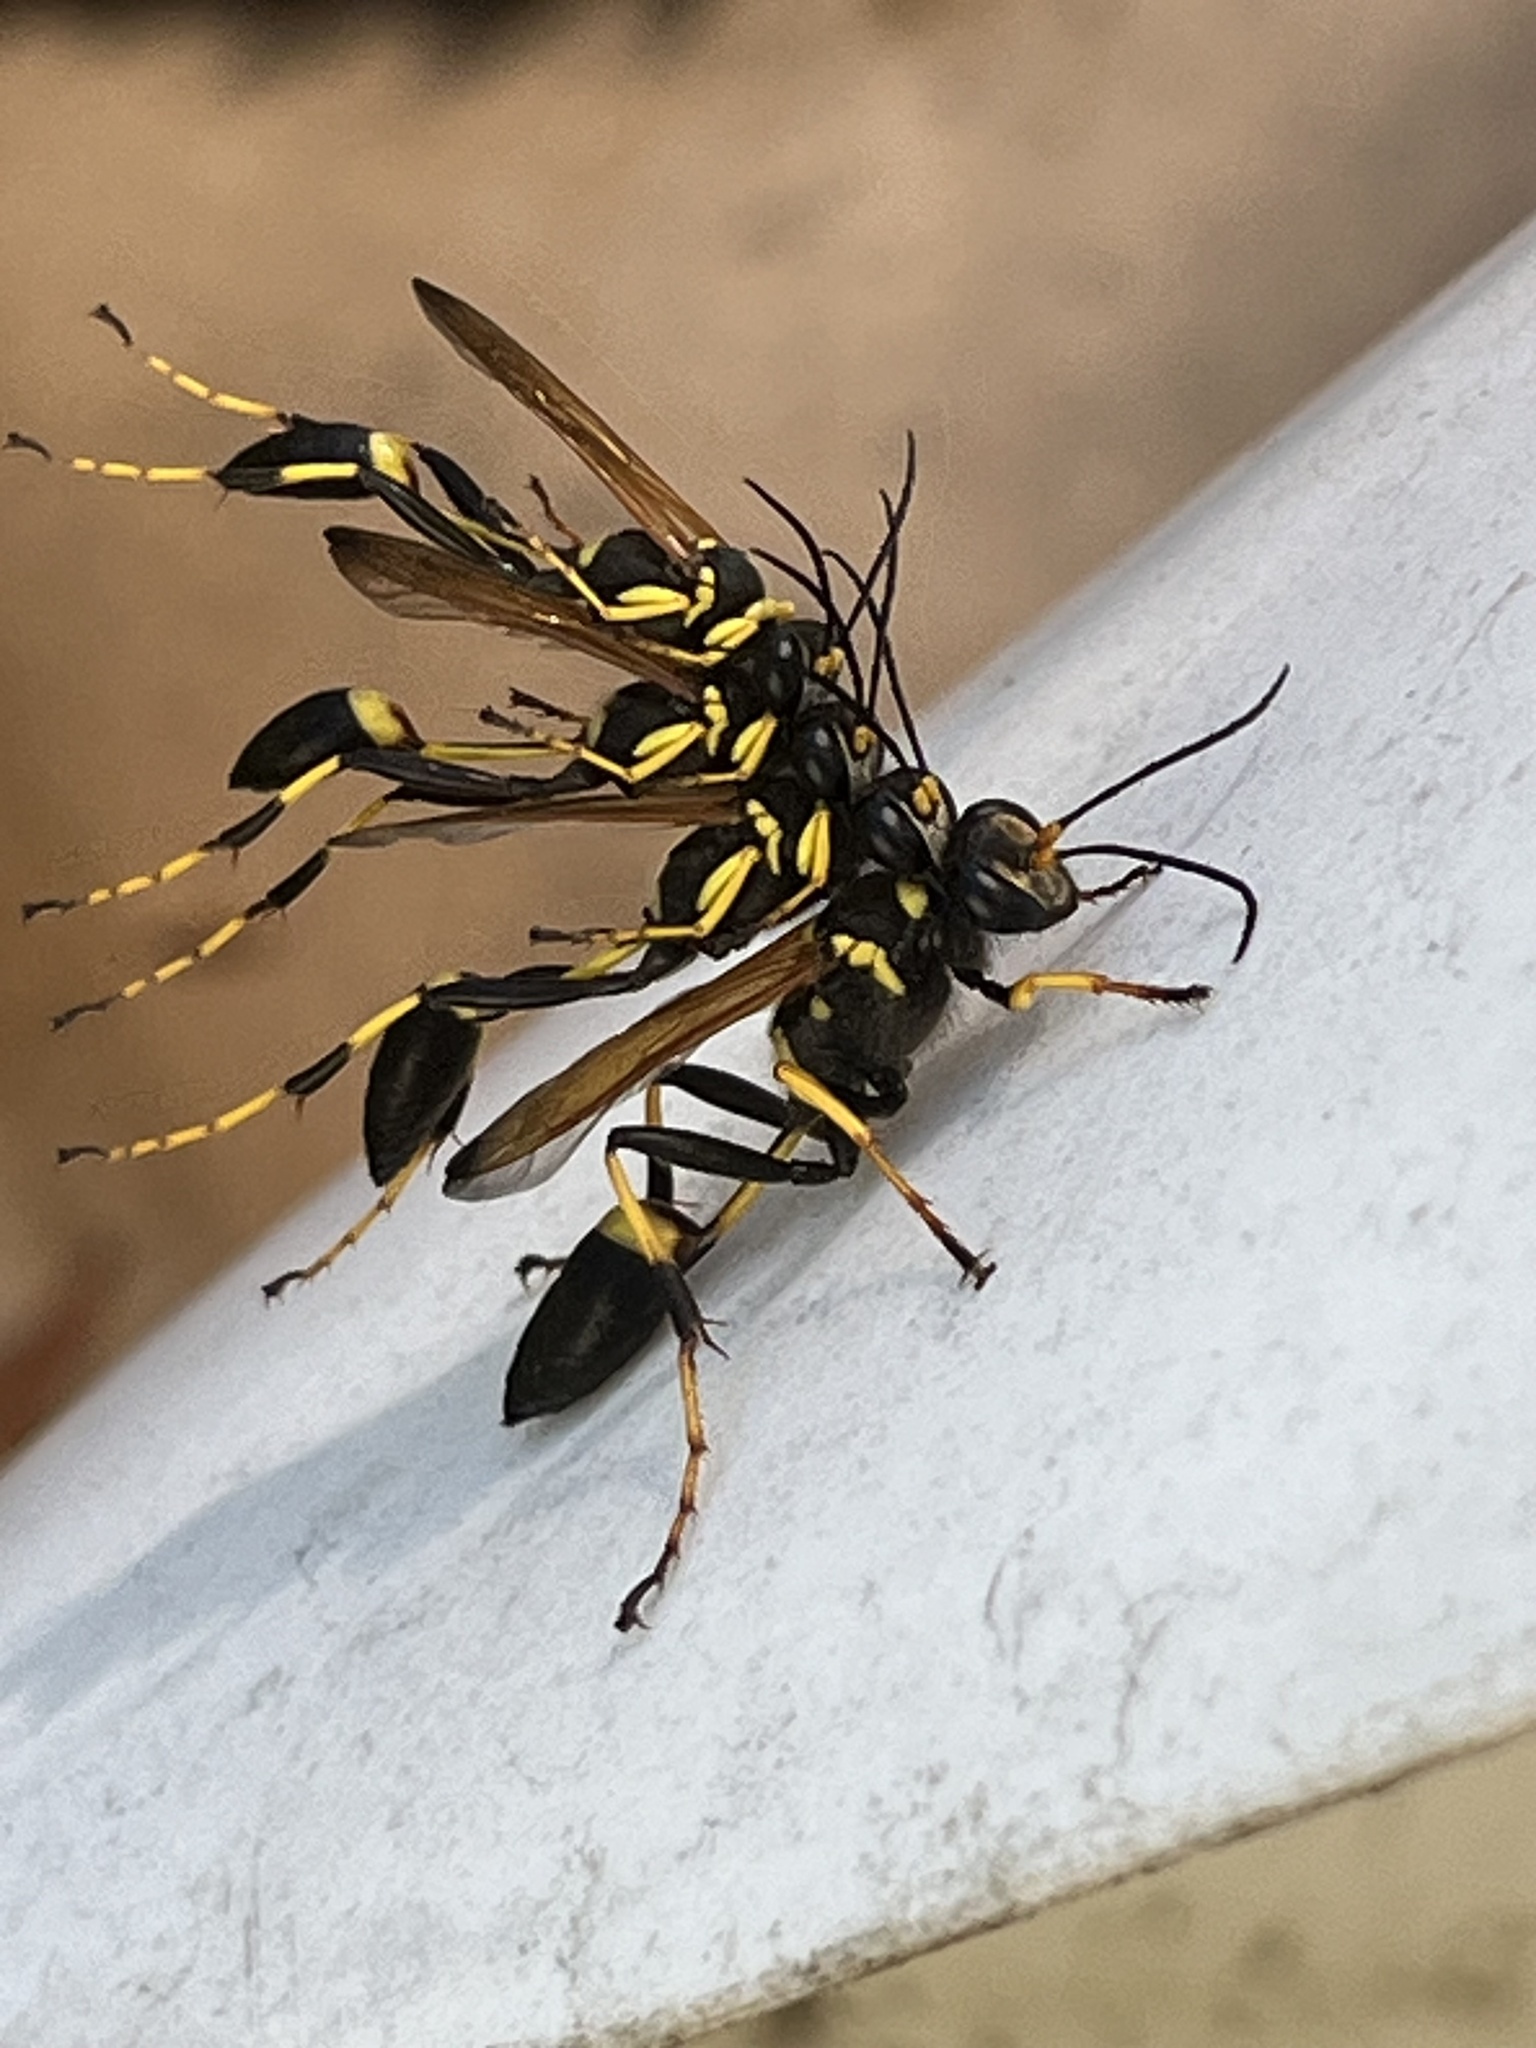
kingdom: Animalia
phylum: Arthropoda
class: Insecta
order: Hymenoptera
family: Sphecidae
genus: Sceliphron
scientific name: Sceliphron caementarium
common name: Mud dauber
